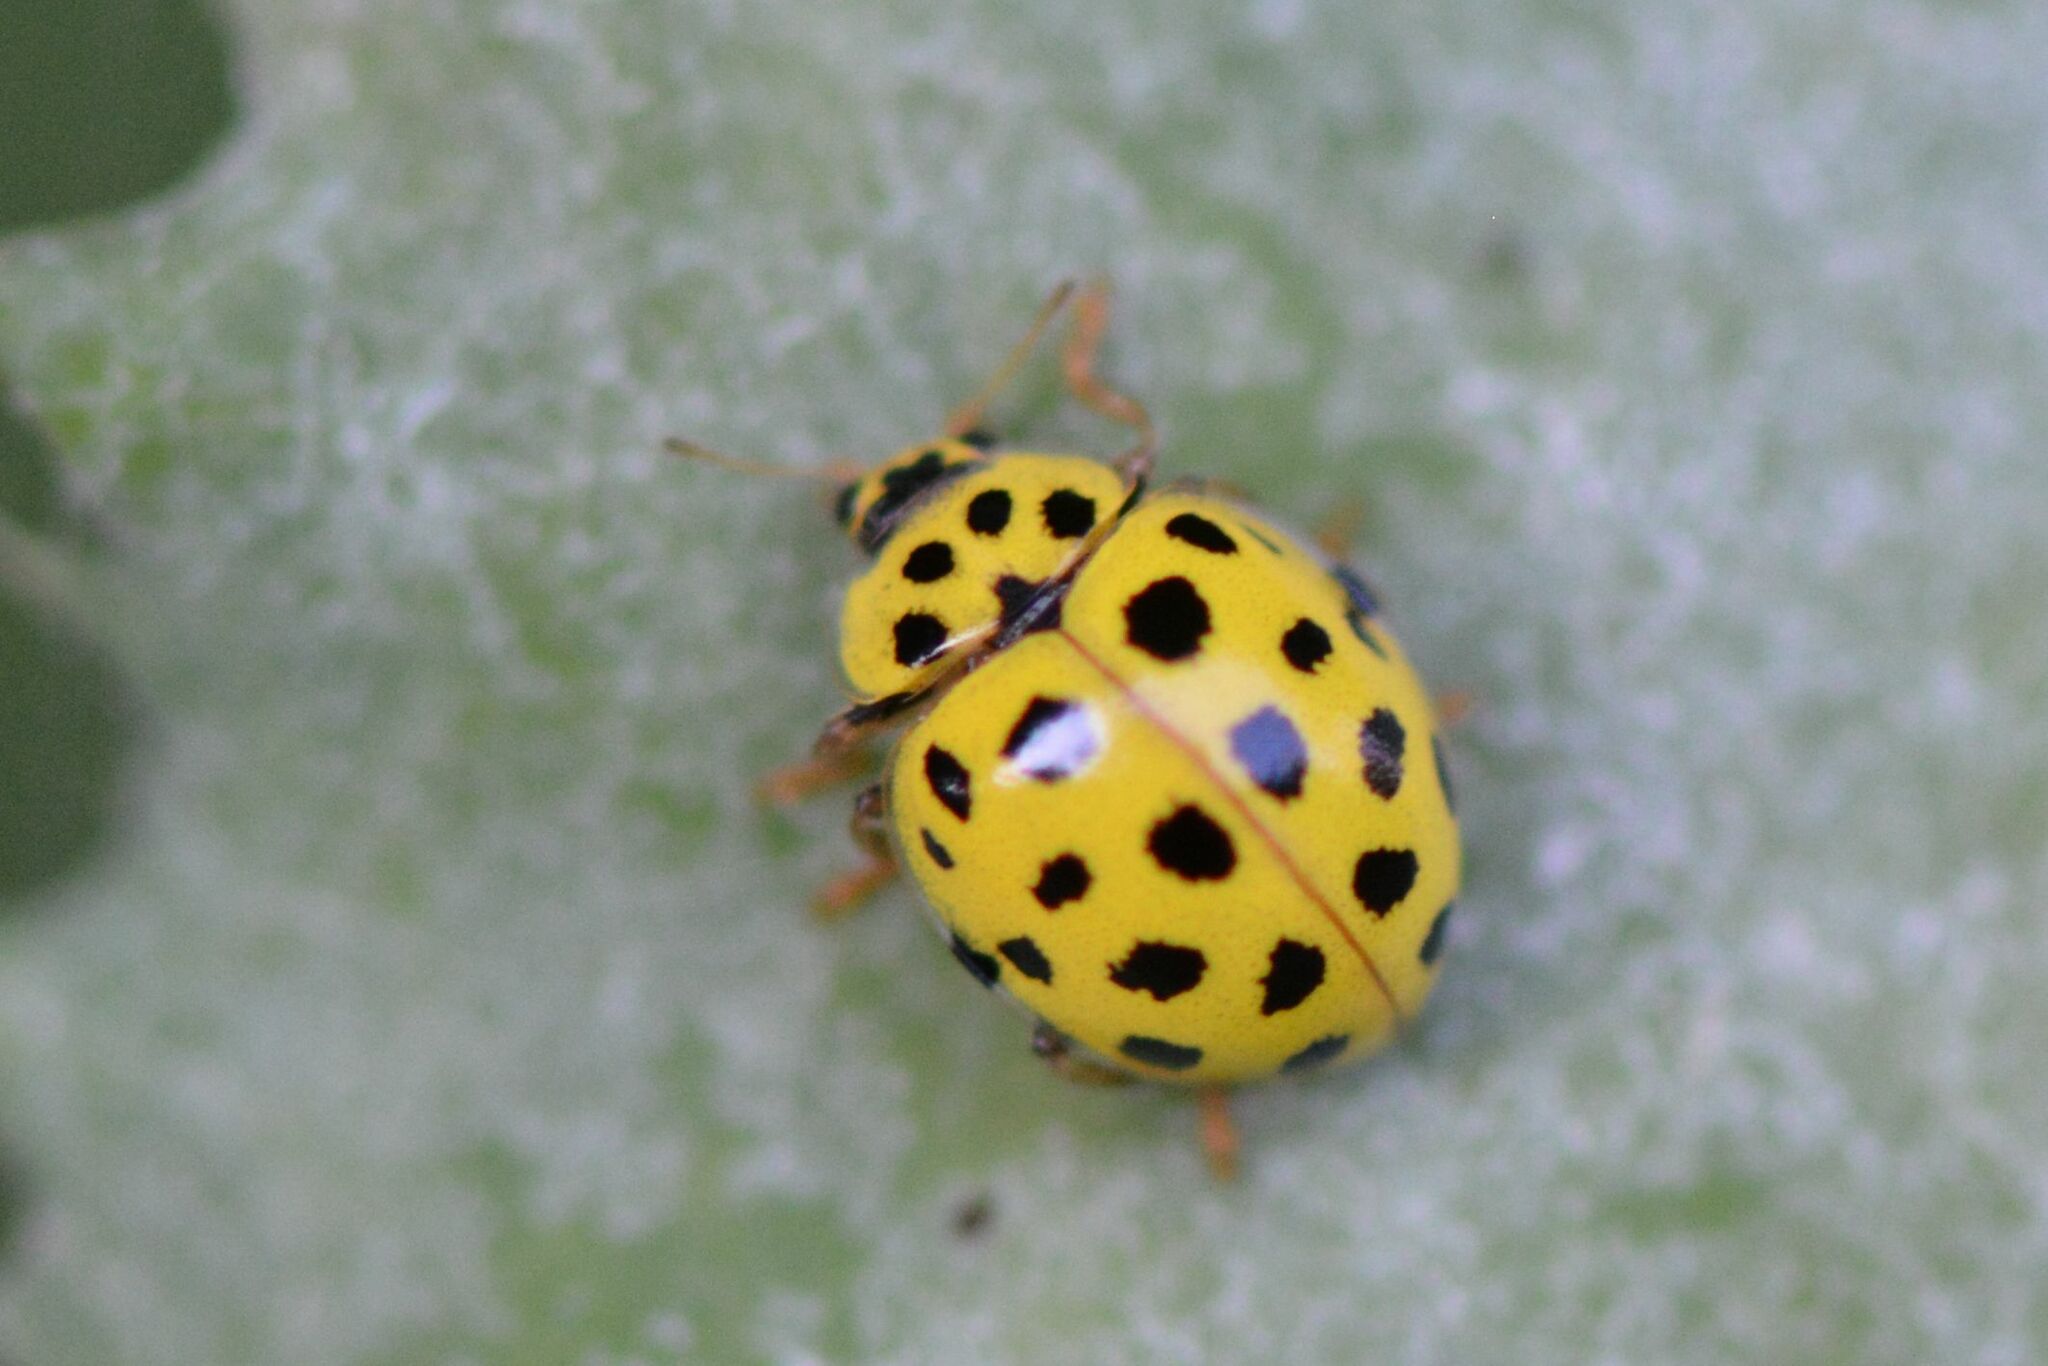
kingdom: Animalia
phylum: Arthropoda
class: Insecta
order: Coleoptera
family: Coccinellidae
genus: Psyllobora
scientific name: Psyllobora vigintiduopunctata
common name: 22-spot ladybird
